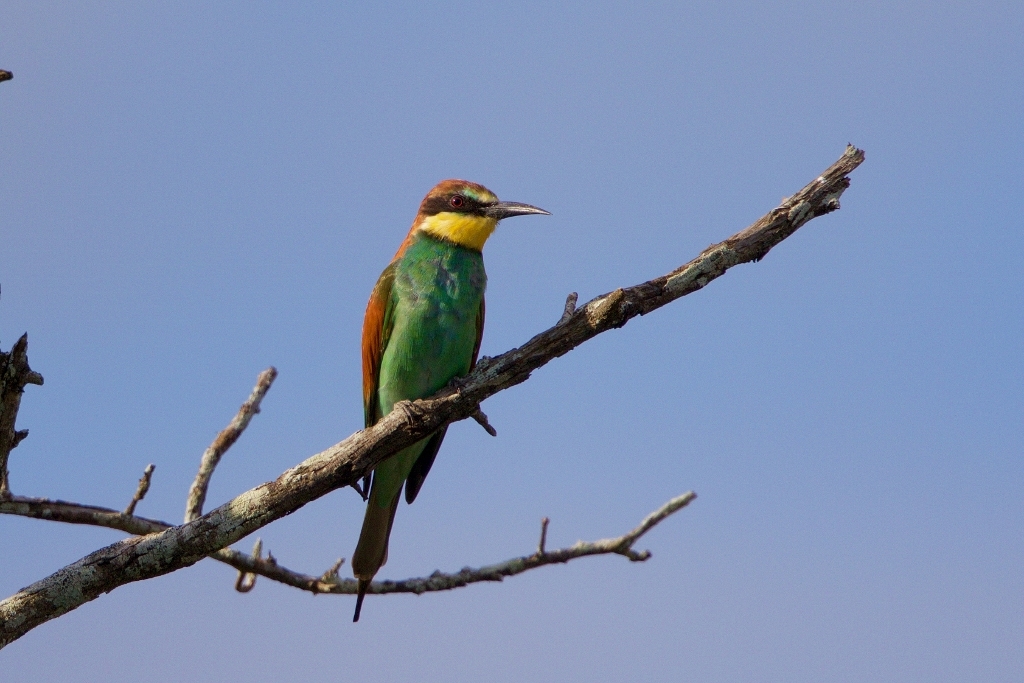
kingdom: Animalia
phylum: Chordata
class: Aves
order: Coraciiformes
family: Meropidae
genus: Merops
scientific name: Merops apiaster
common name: European bee-eater
